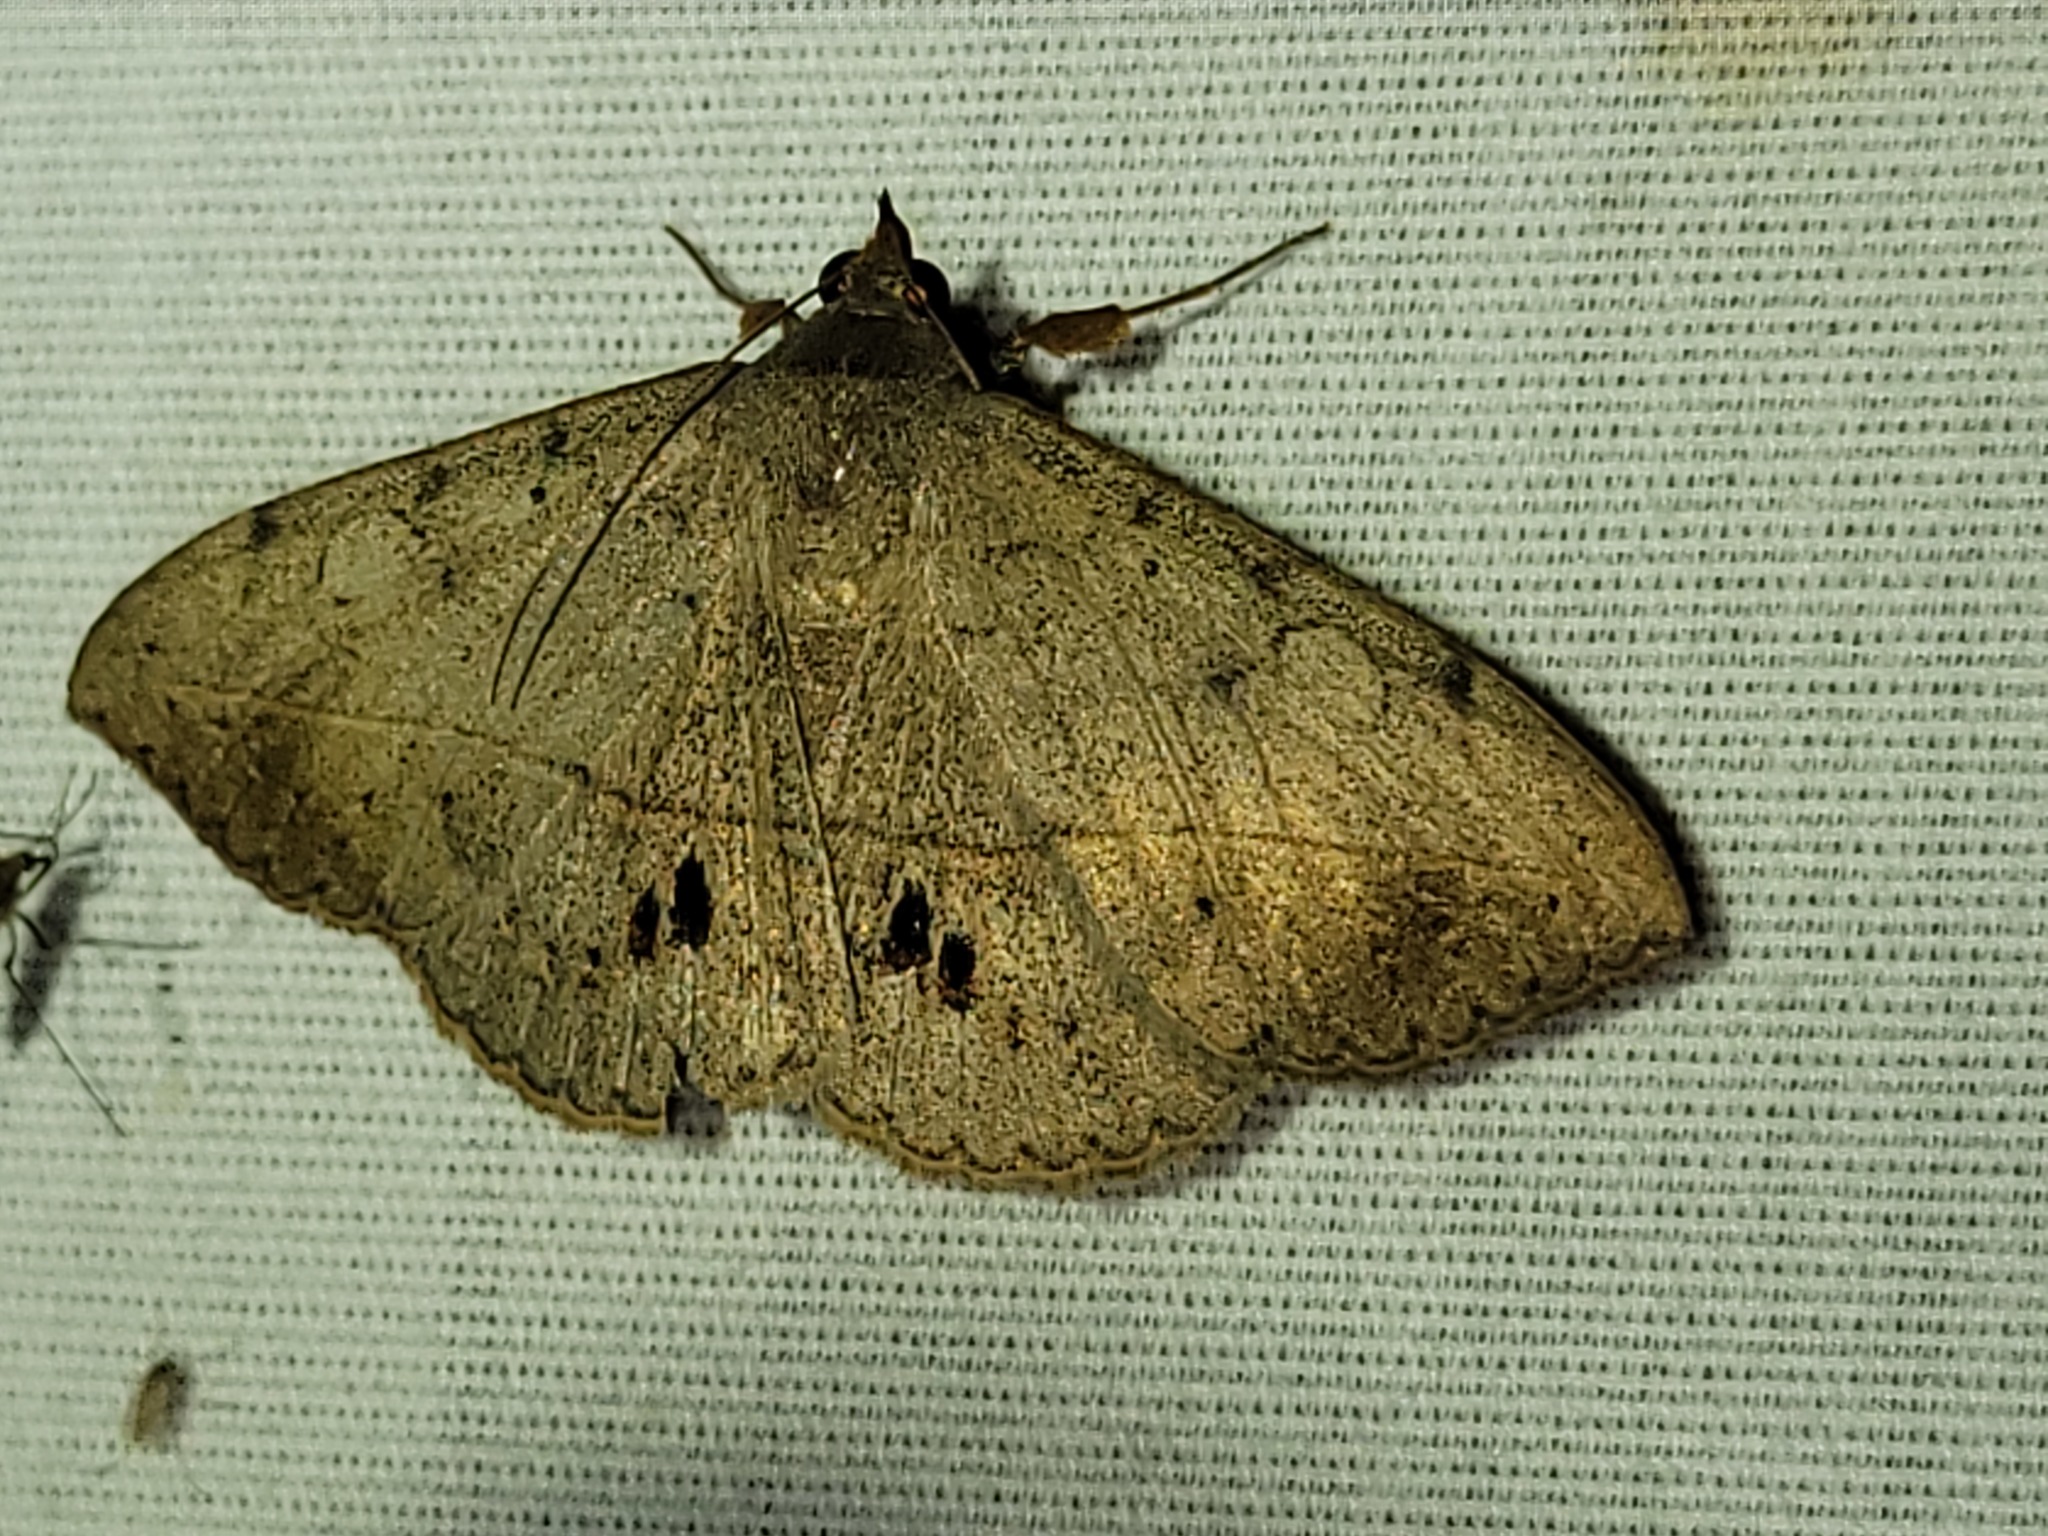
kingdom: Animalia
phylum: Arthropoda
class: Insecta
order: Lepidoptera
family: Erebidae
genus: Anticarsia
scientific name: Anticarsia gemmatalis
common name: Cutworm moth
